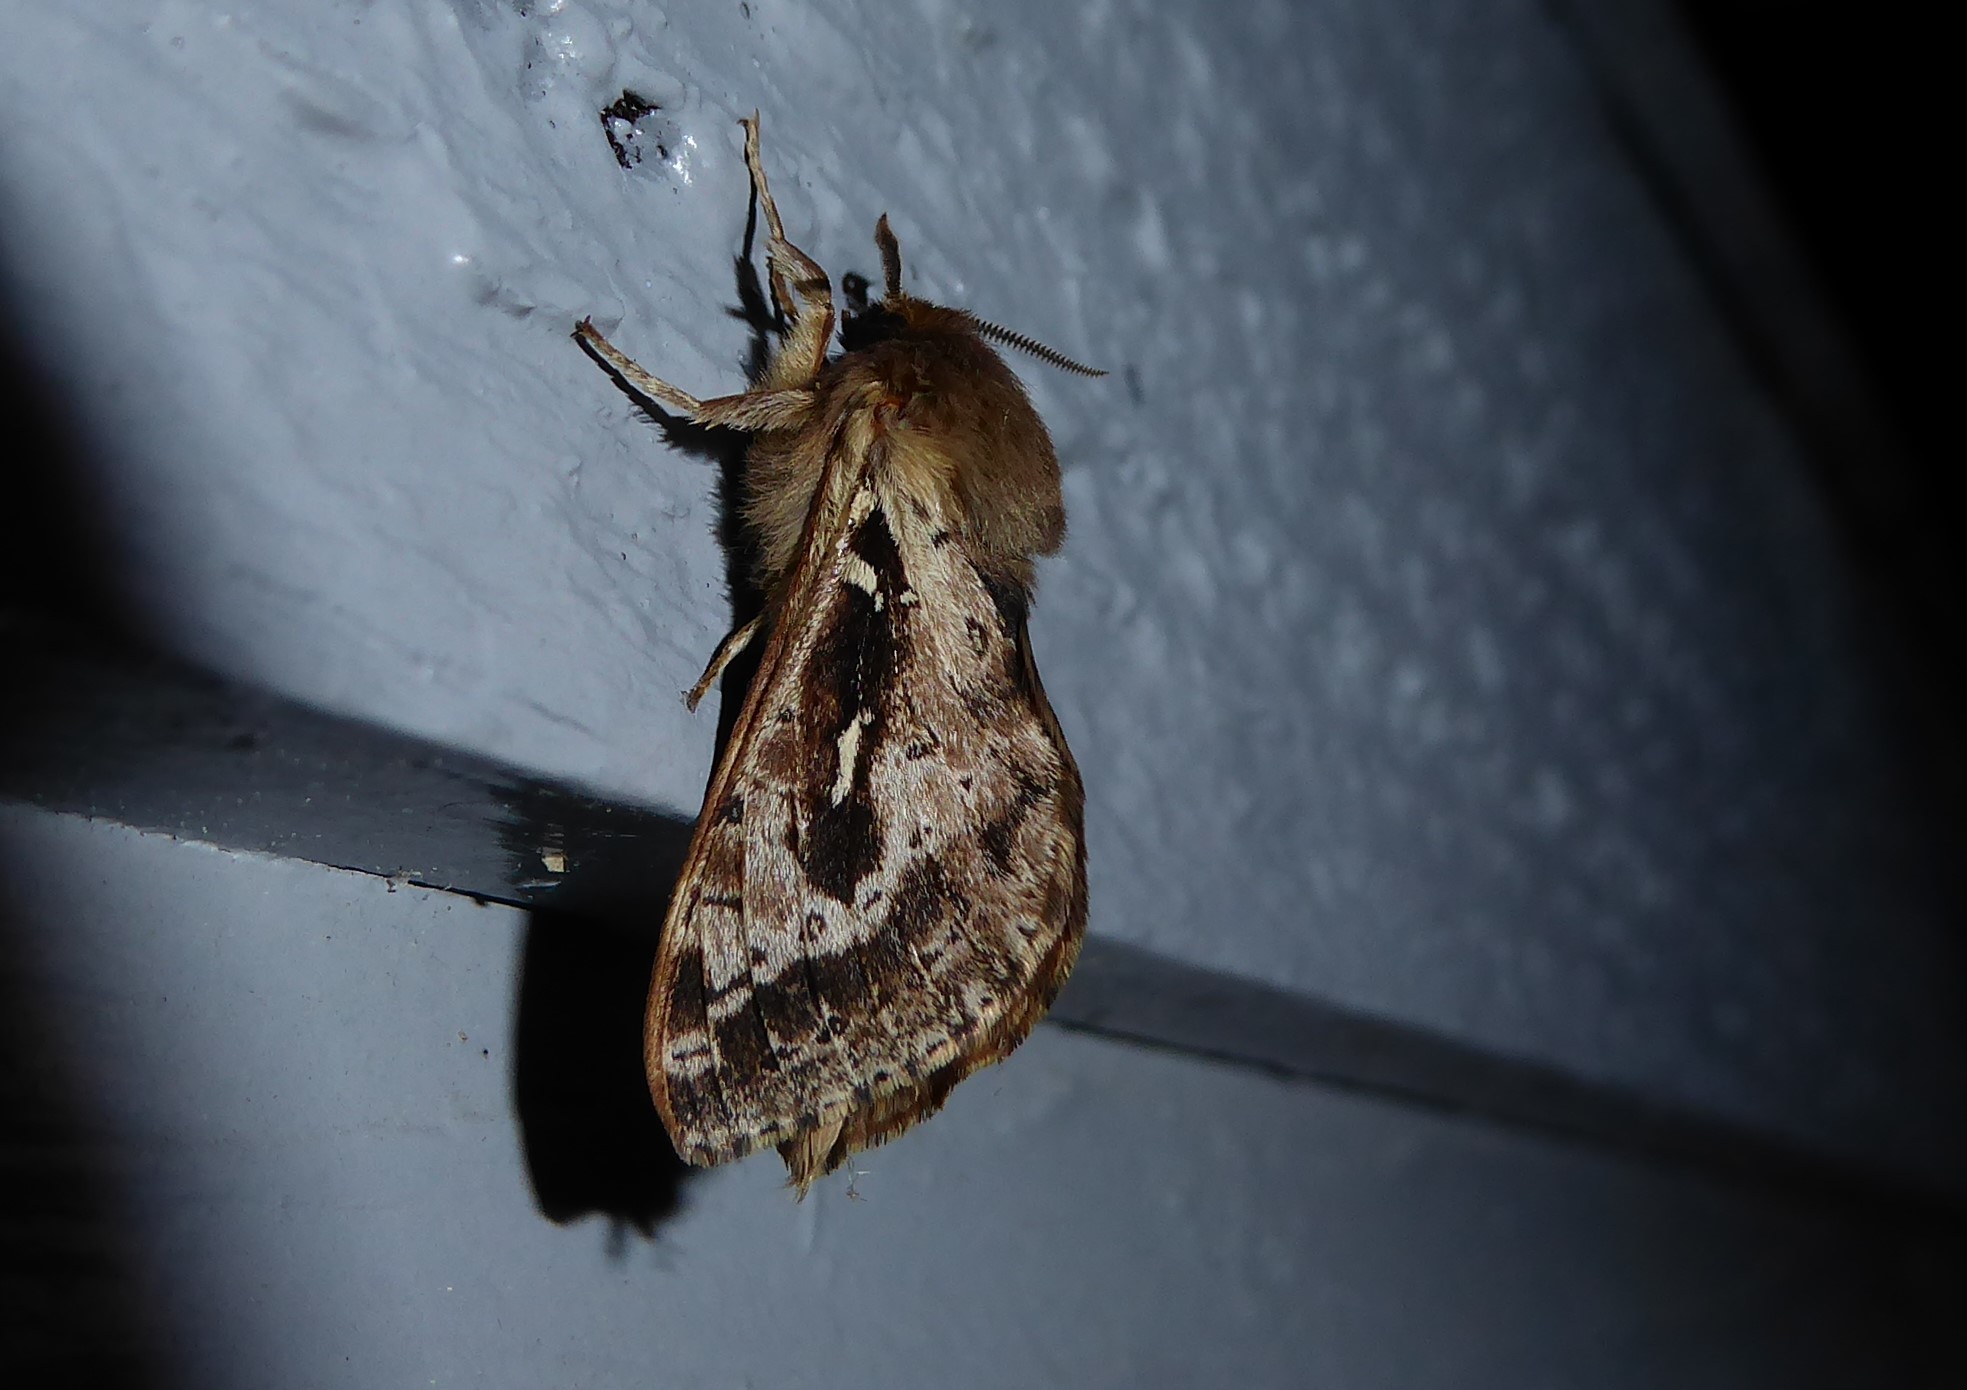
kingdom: Animalia
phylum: Arthropoda
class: Insecta
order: Lepidoptera
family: Hepialidae
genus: Wiseana
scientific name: Wiseana jocosa
